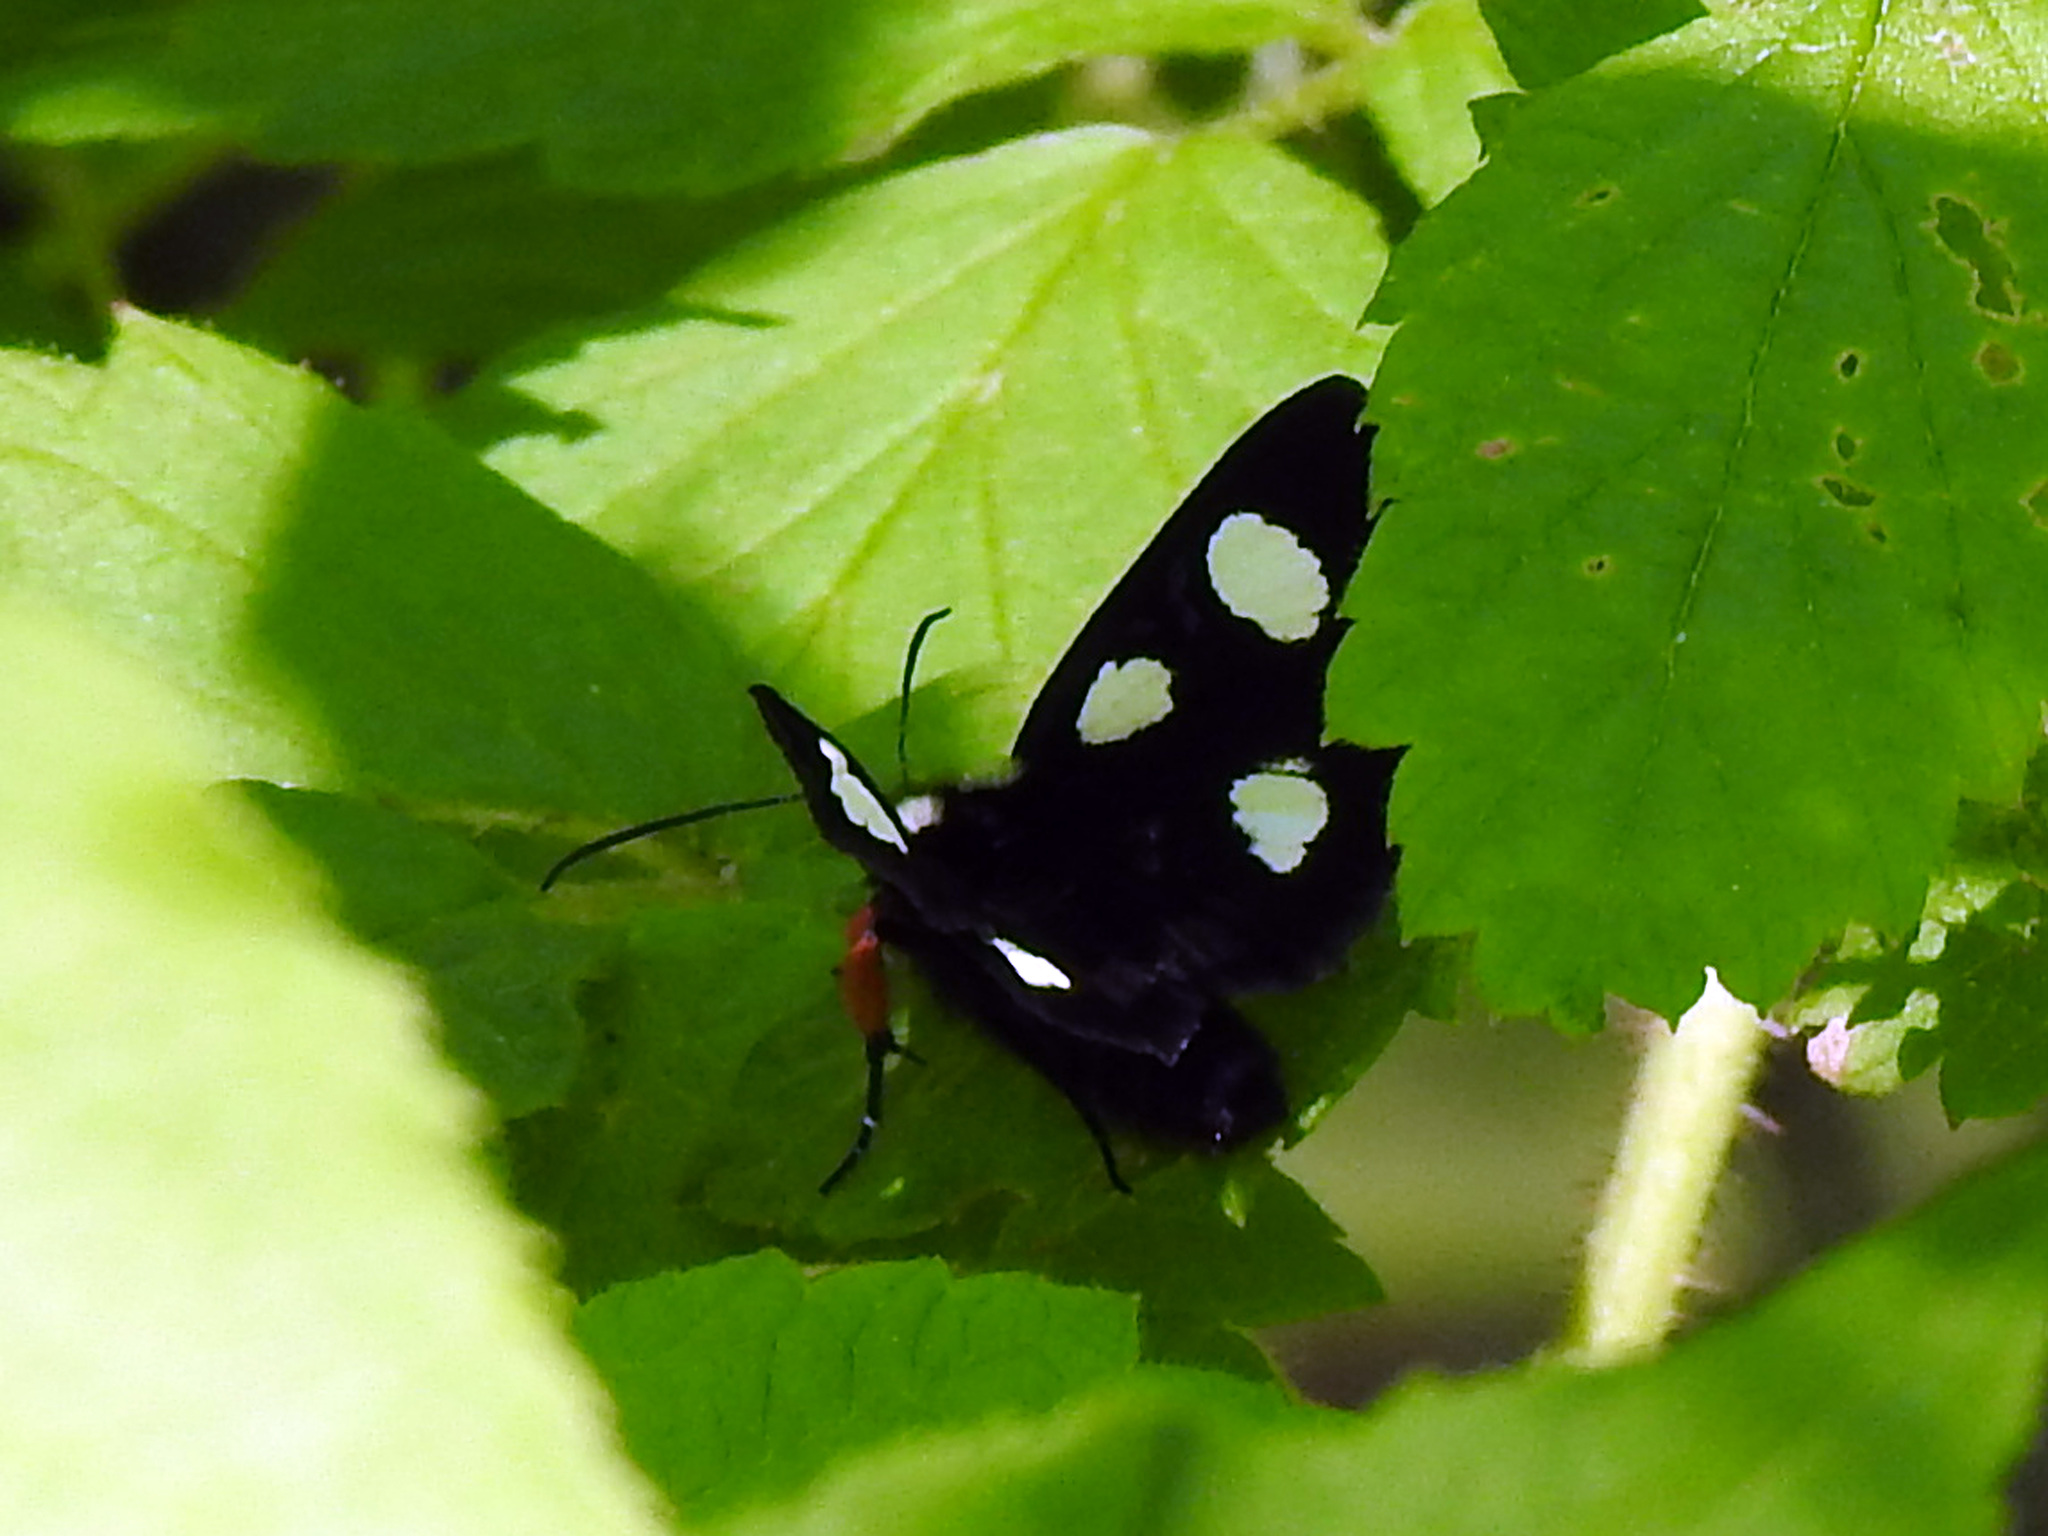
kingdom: Animalia
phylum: Arthropoda
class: Insecta
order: Lepidoptera
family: Noctuidae
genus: Alypia
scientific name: Alypia langtonii
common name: Fireweed caterpillar
